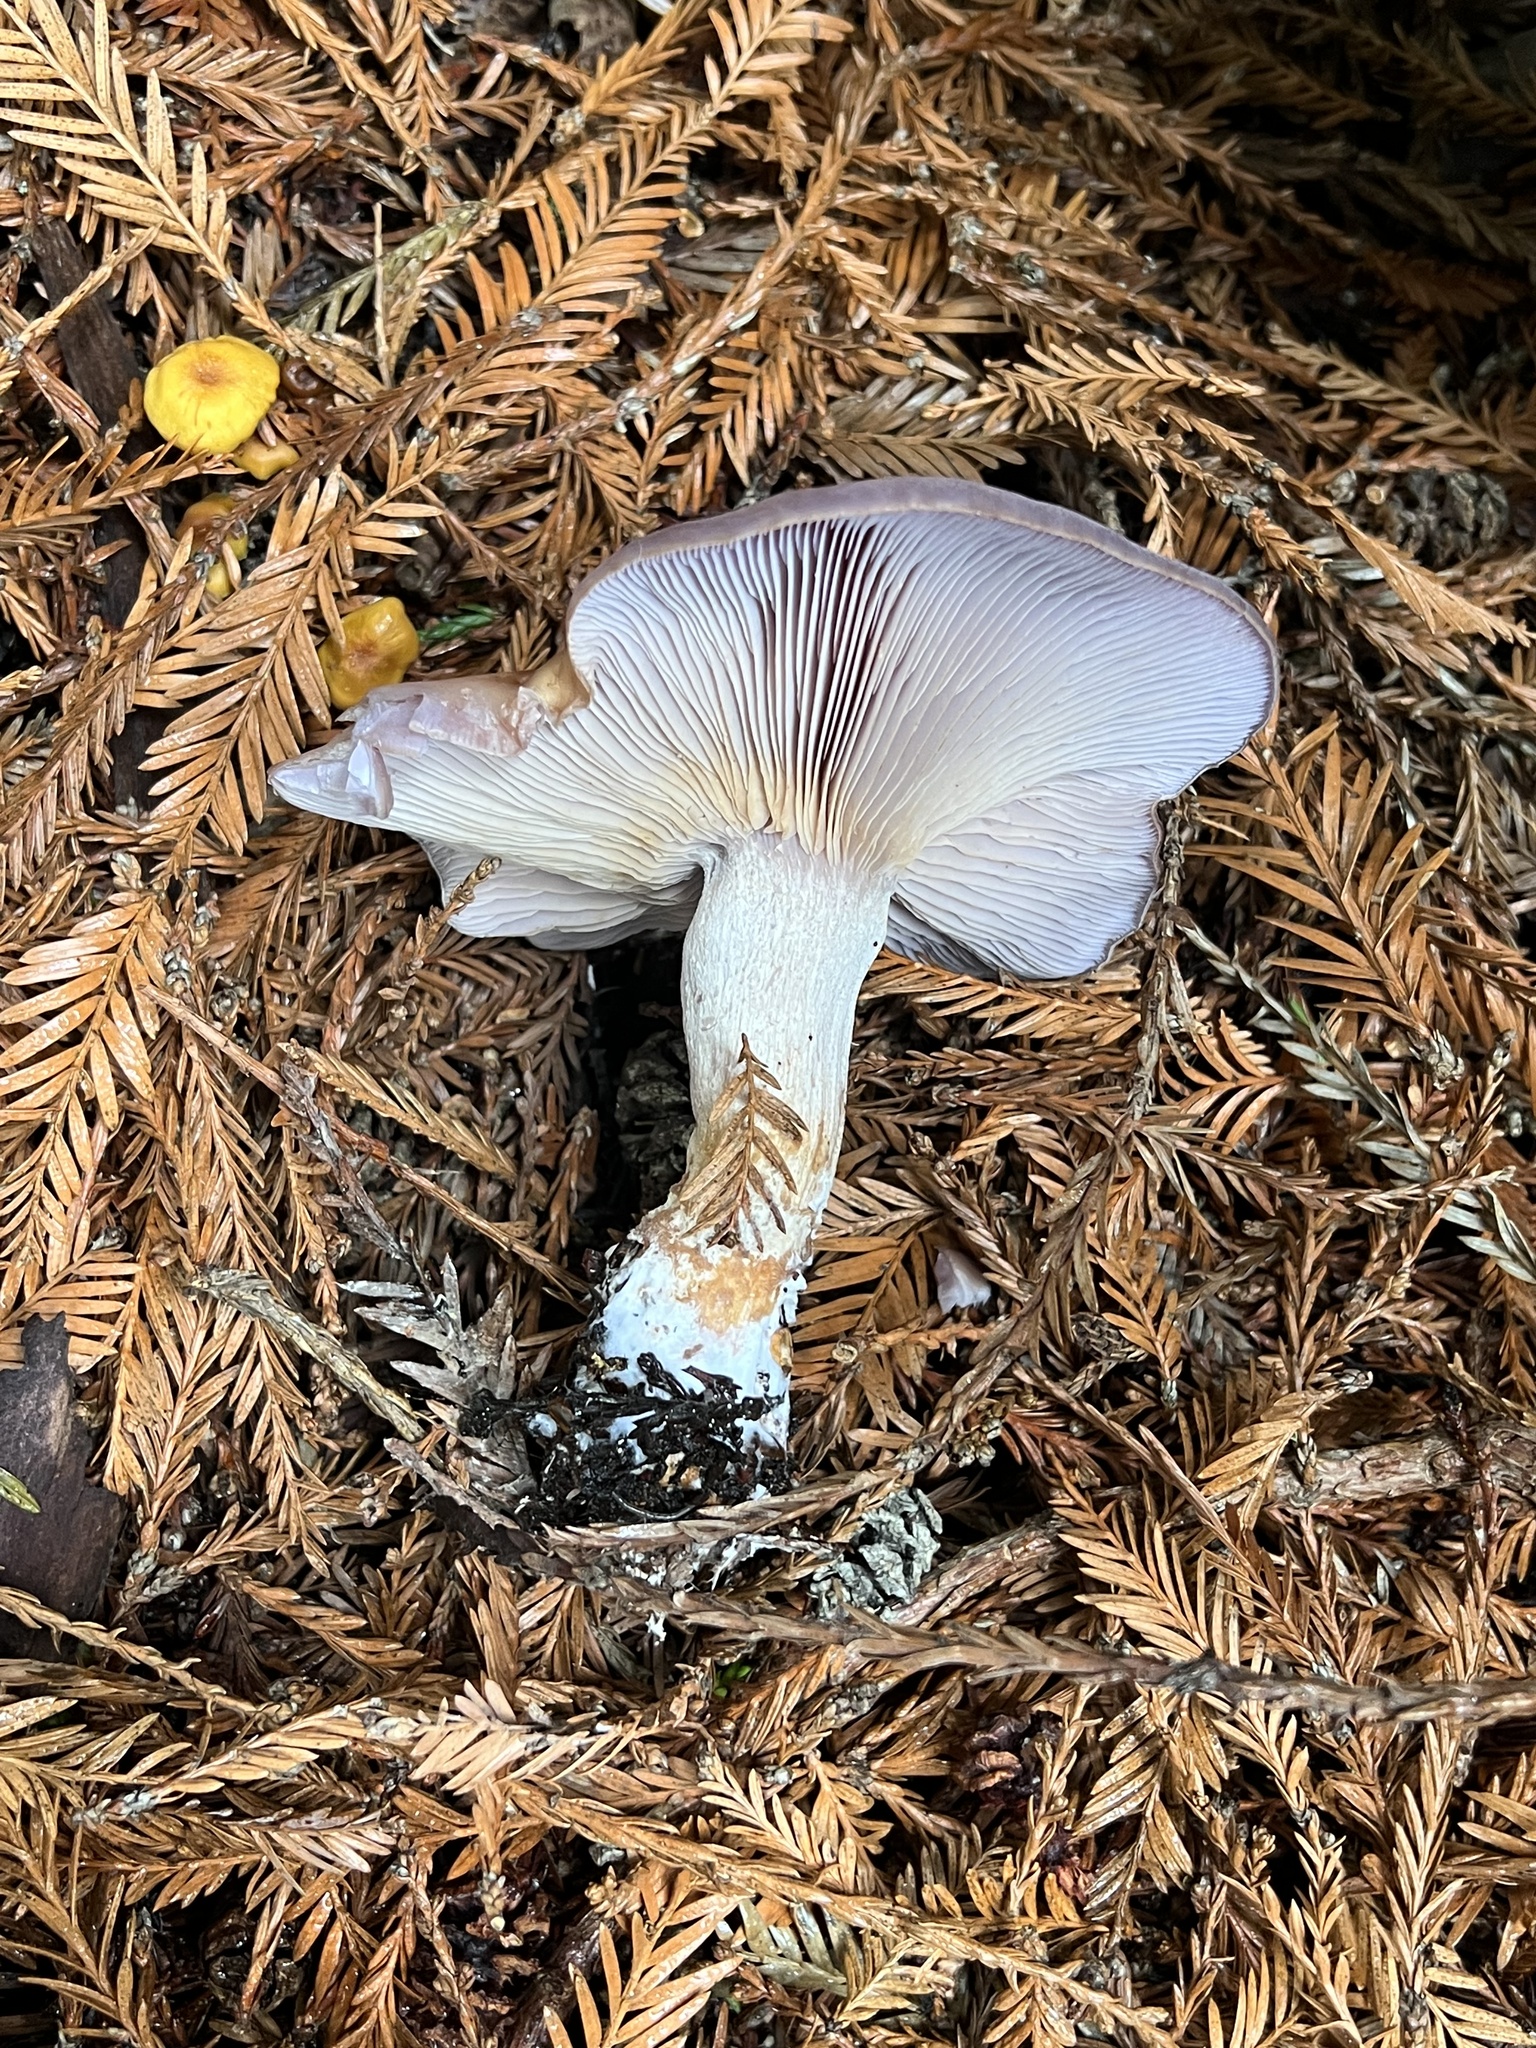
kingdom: Fungi
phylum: Basidiomycota
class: Agaricomycetes
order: Agaricales
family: Tricholomataceae
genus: Collybia
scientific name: Collybia
